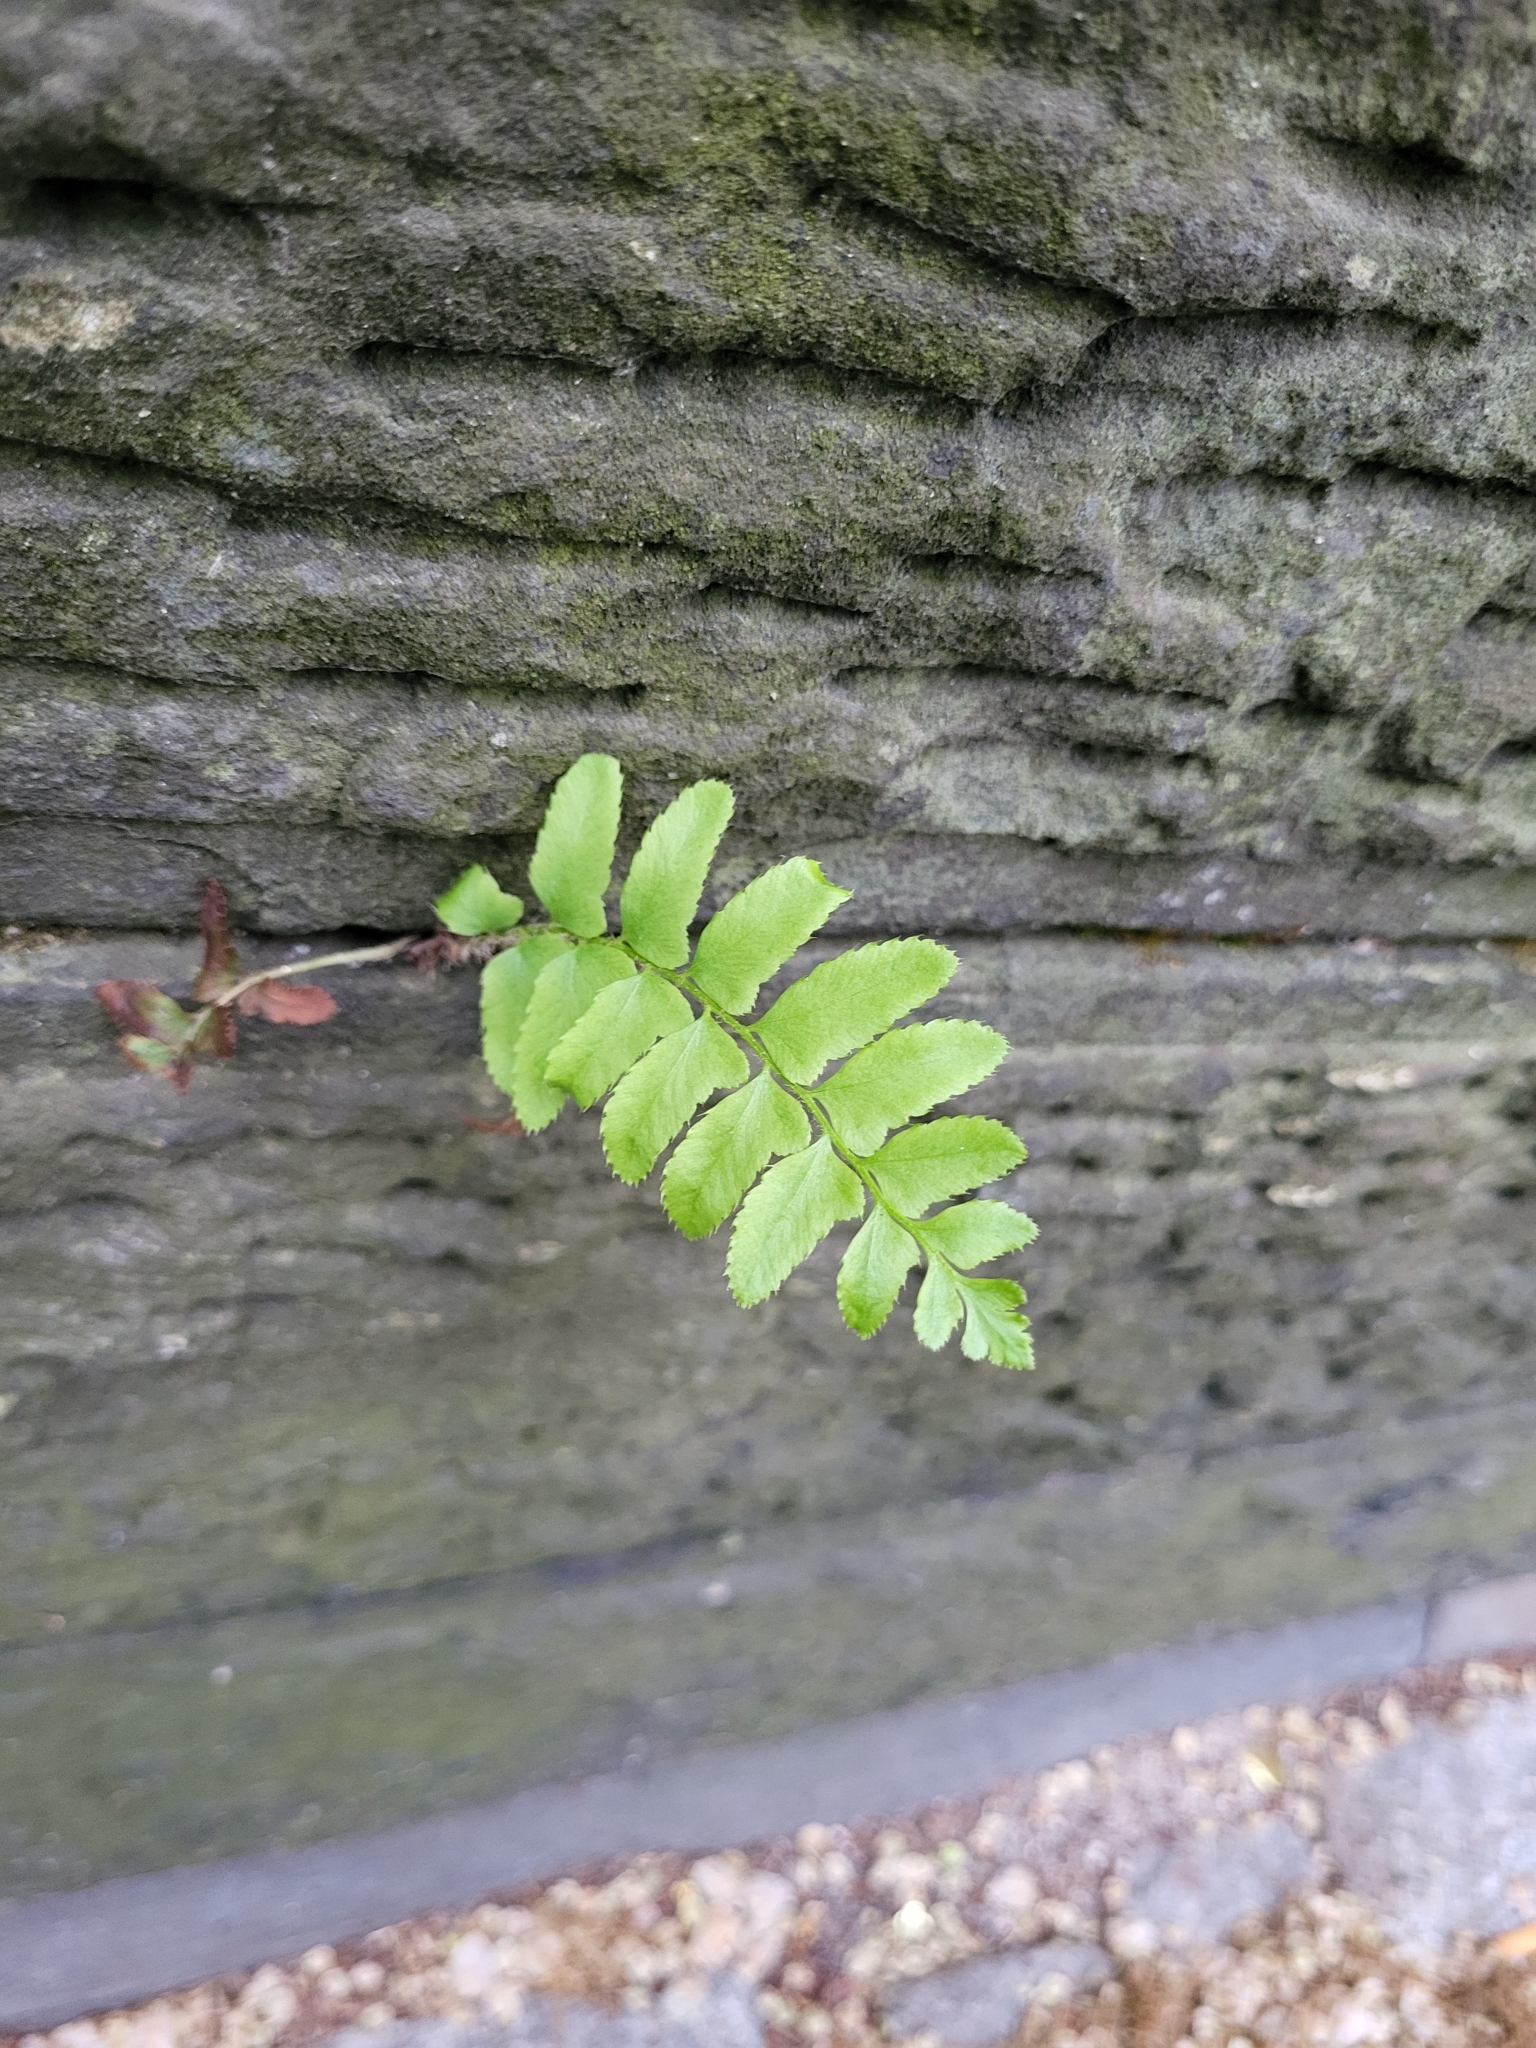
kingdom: Plantae
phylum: Tracheophyta
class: Polypodiopsida
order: Polypodiales
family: Dryopteridaceae
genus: Polystichum
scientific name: Polystichum acrostichoides
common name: Christmas fern
